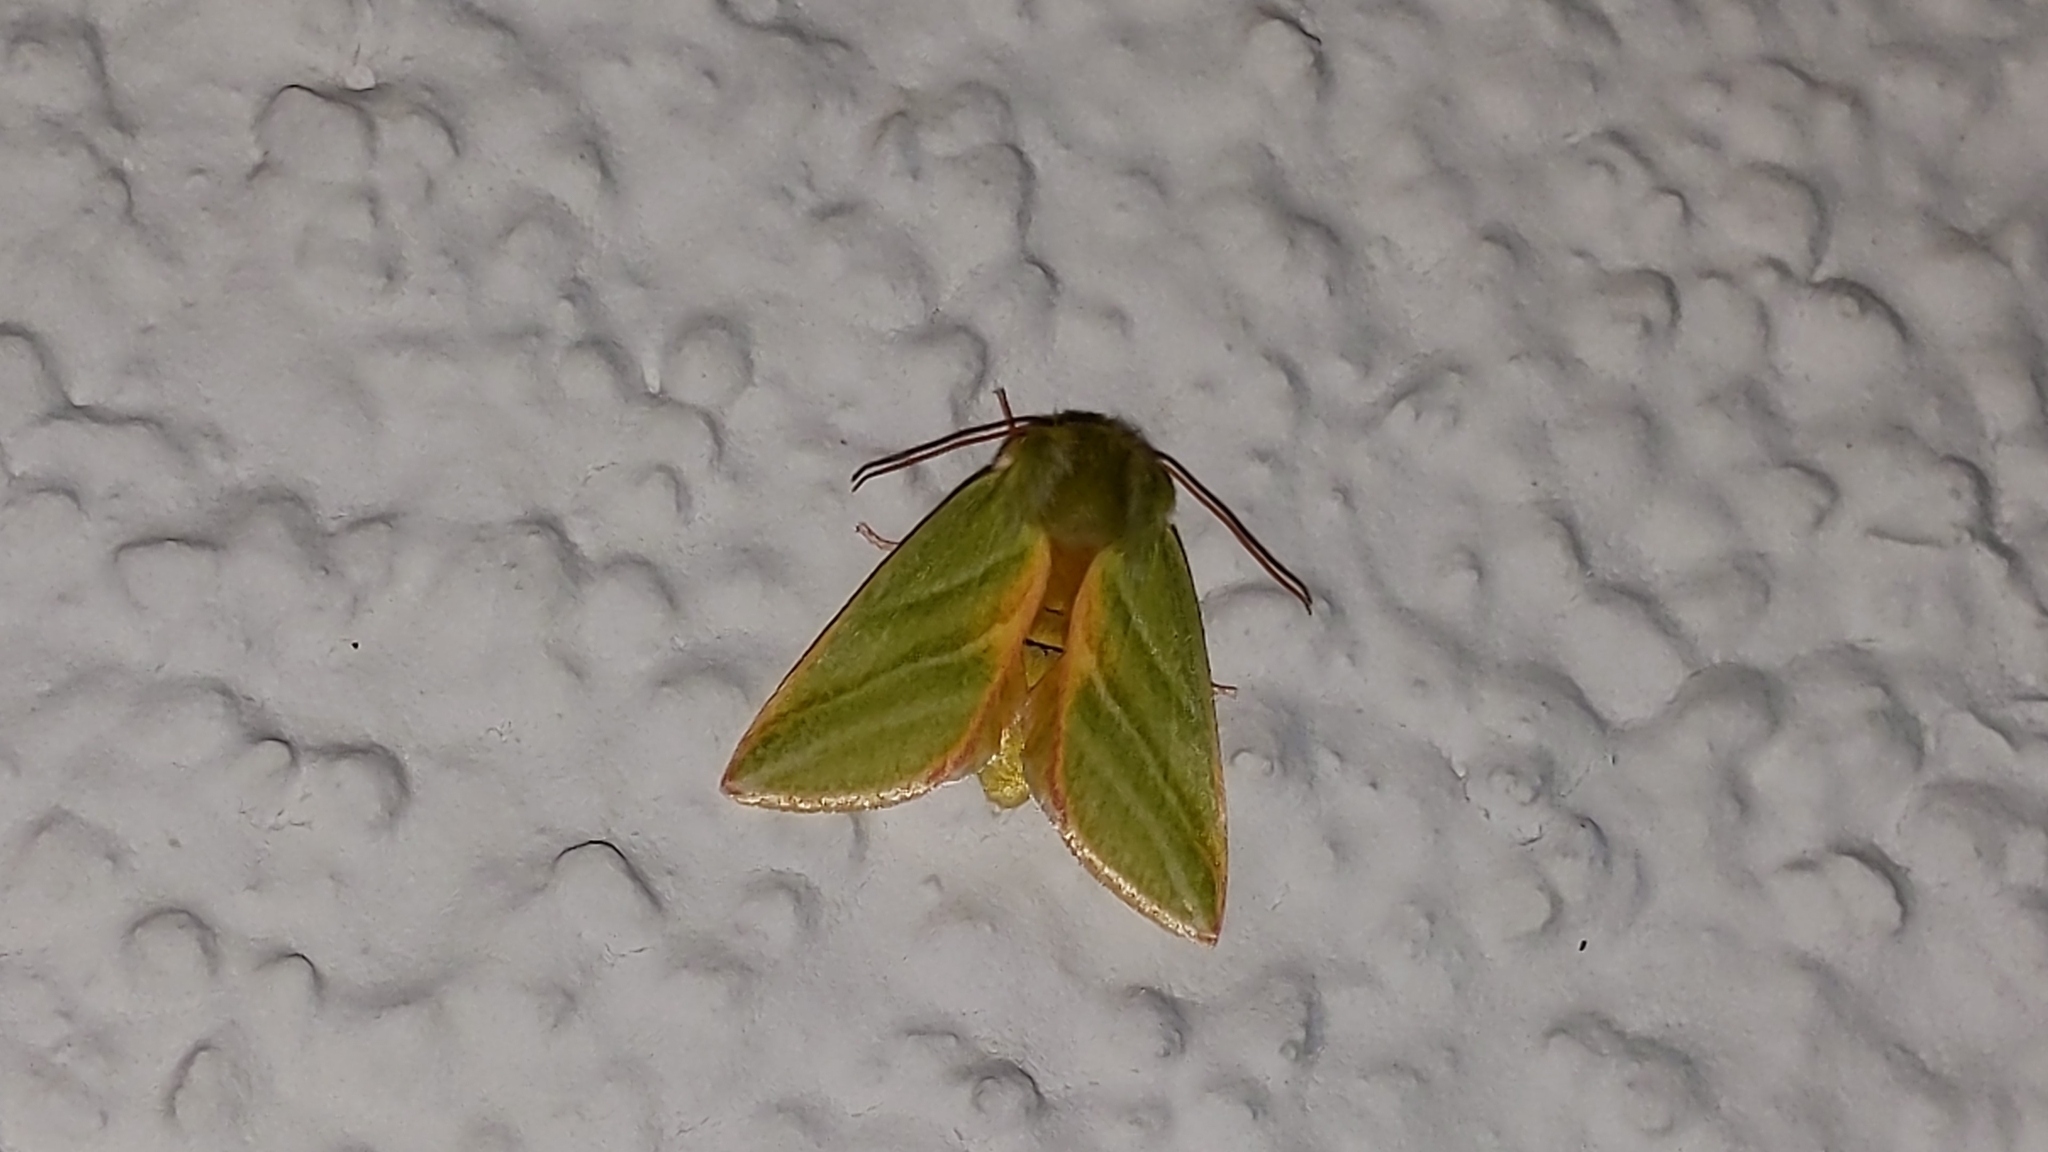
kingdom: Animalia
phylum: Arthropoda
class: Insecta
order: Lepidoptera
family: Nolidae
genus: Pseudoips
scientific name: Pseudoips prasinana
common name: Green silver-lines
